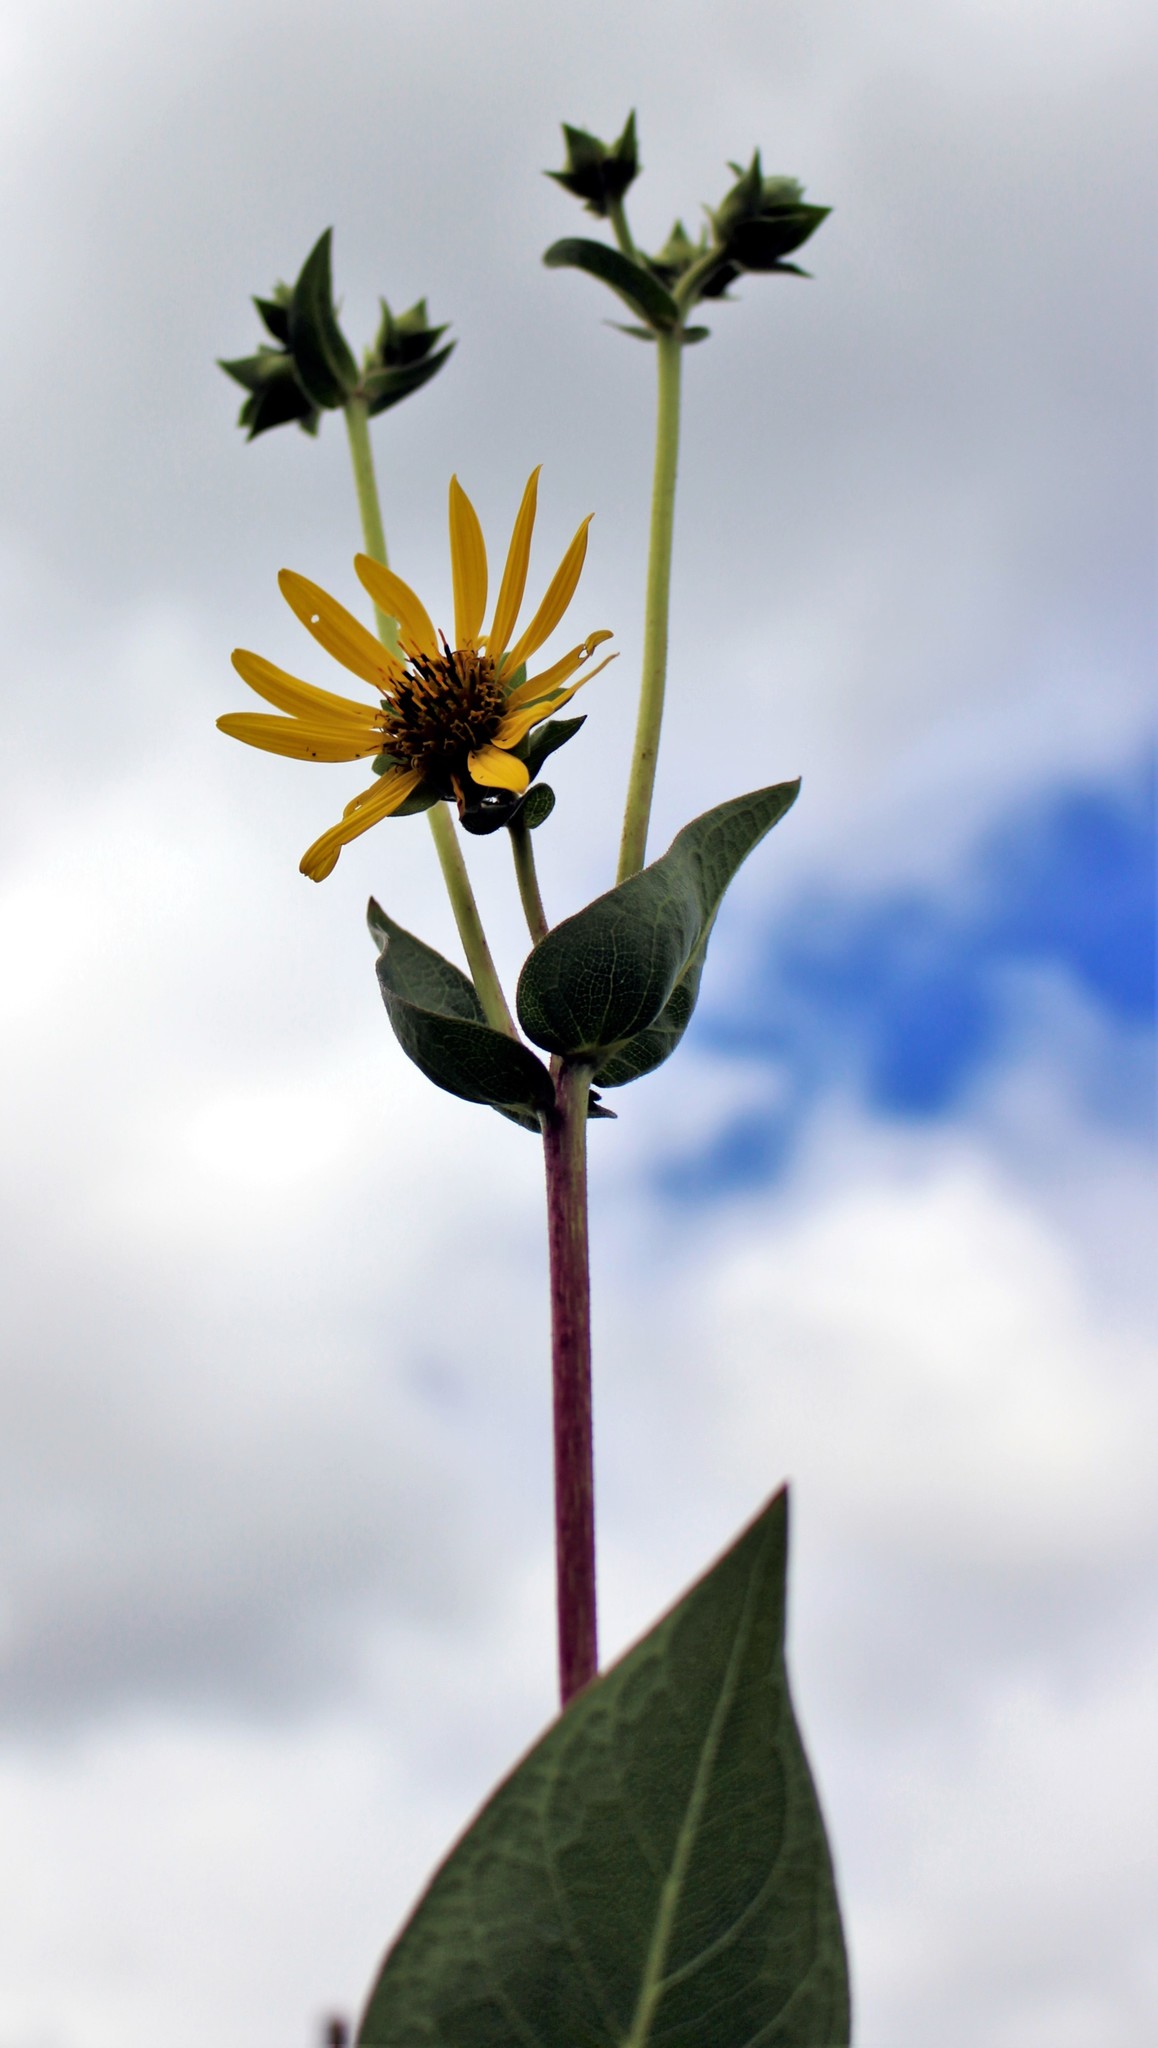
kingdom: Plantae
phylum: Tracheophyta
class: Magnoliopsida
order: Asterales
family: Asteraceae
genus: Silphium
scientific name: Silphium integrifolium
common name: Whole-leaf rosinweed
